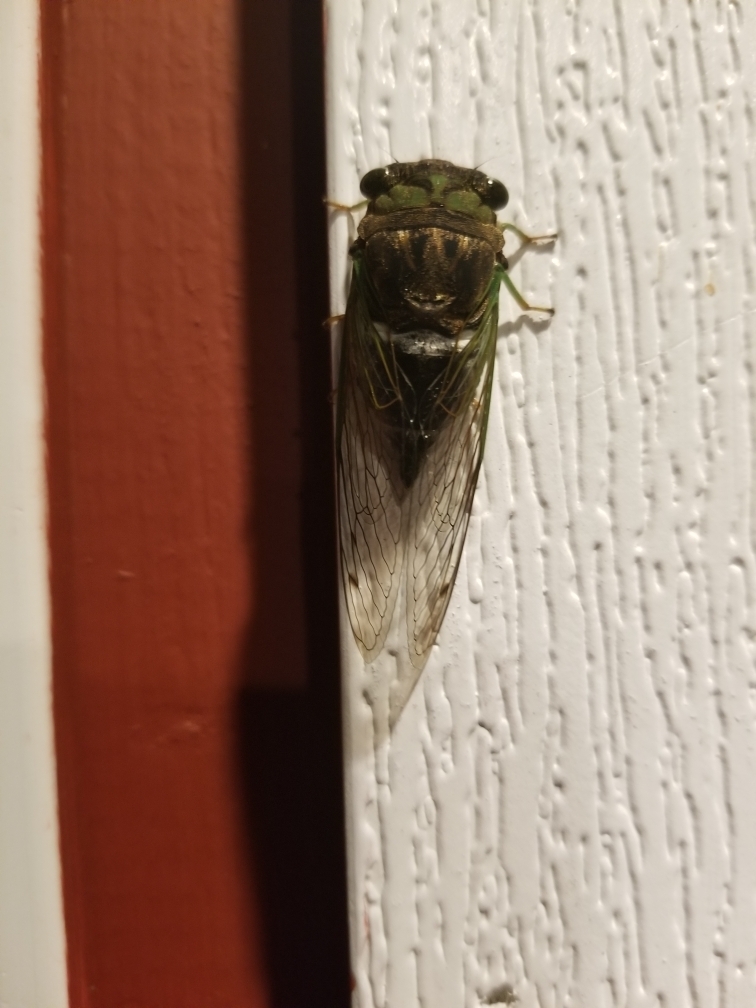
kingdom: Animalia
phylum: Arthropoda
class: Insecta
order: Hemiptera
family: Cicadidae
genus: Neotibicen
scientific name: Neotibicen tibicen
